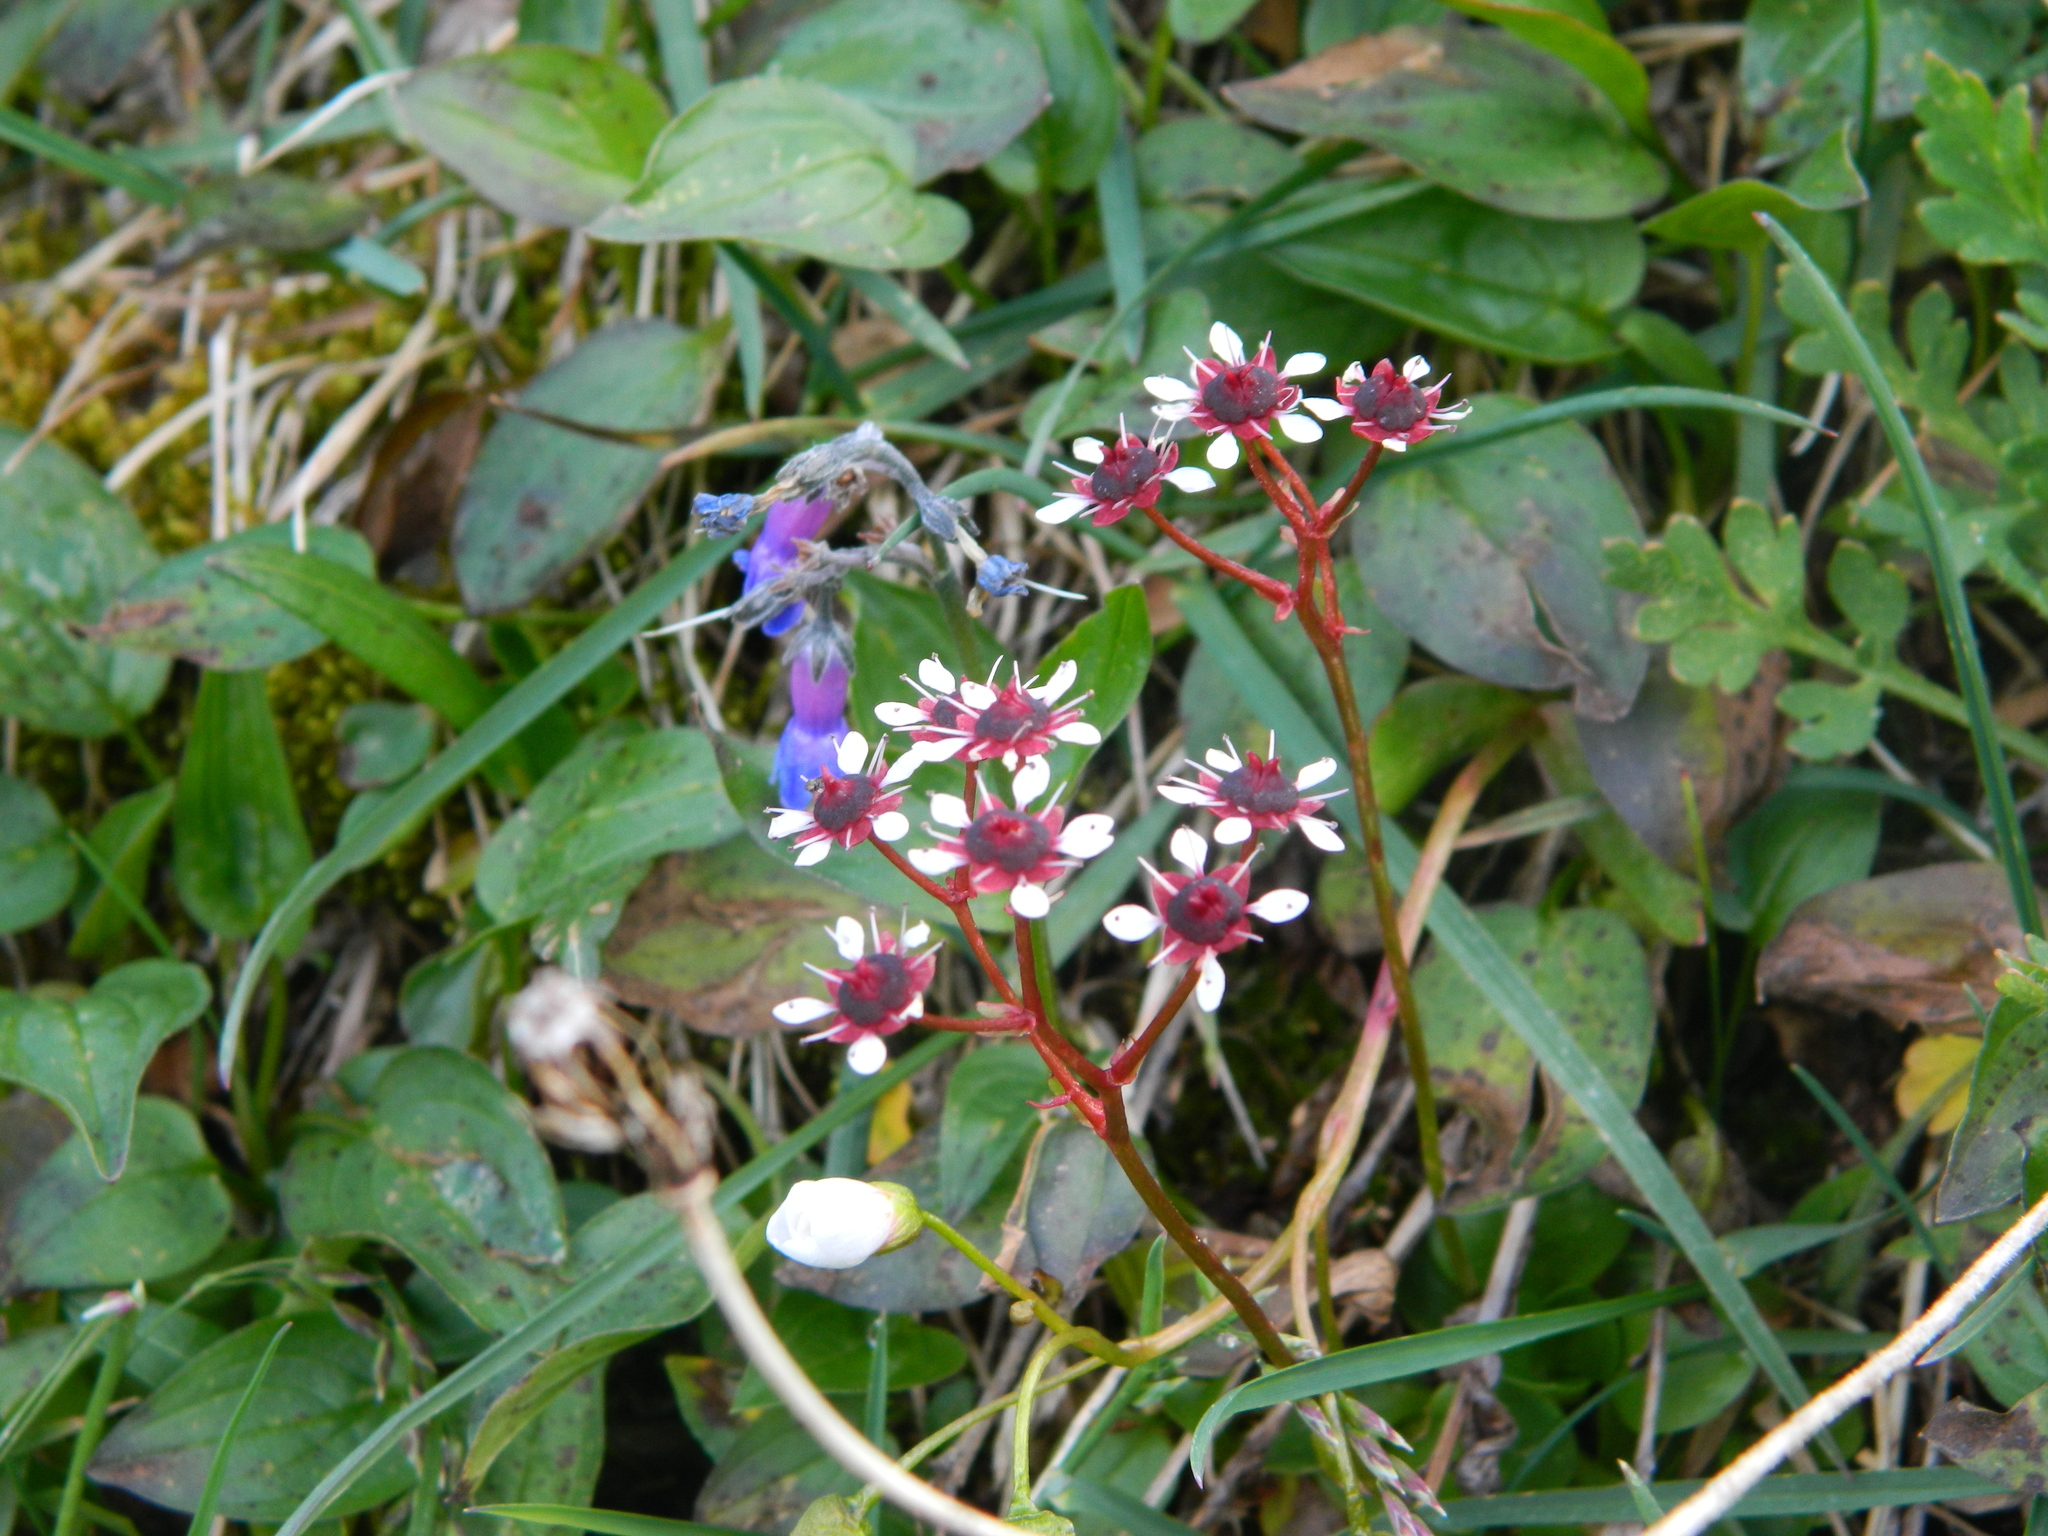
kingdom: Plantae
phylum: Tracheophyta
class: Magnoliopsida
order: Saxifragales
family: Saxifragaceae
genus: Micranthes
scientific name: Micranthes melaleuca
